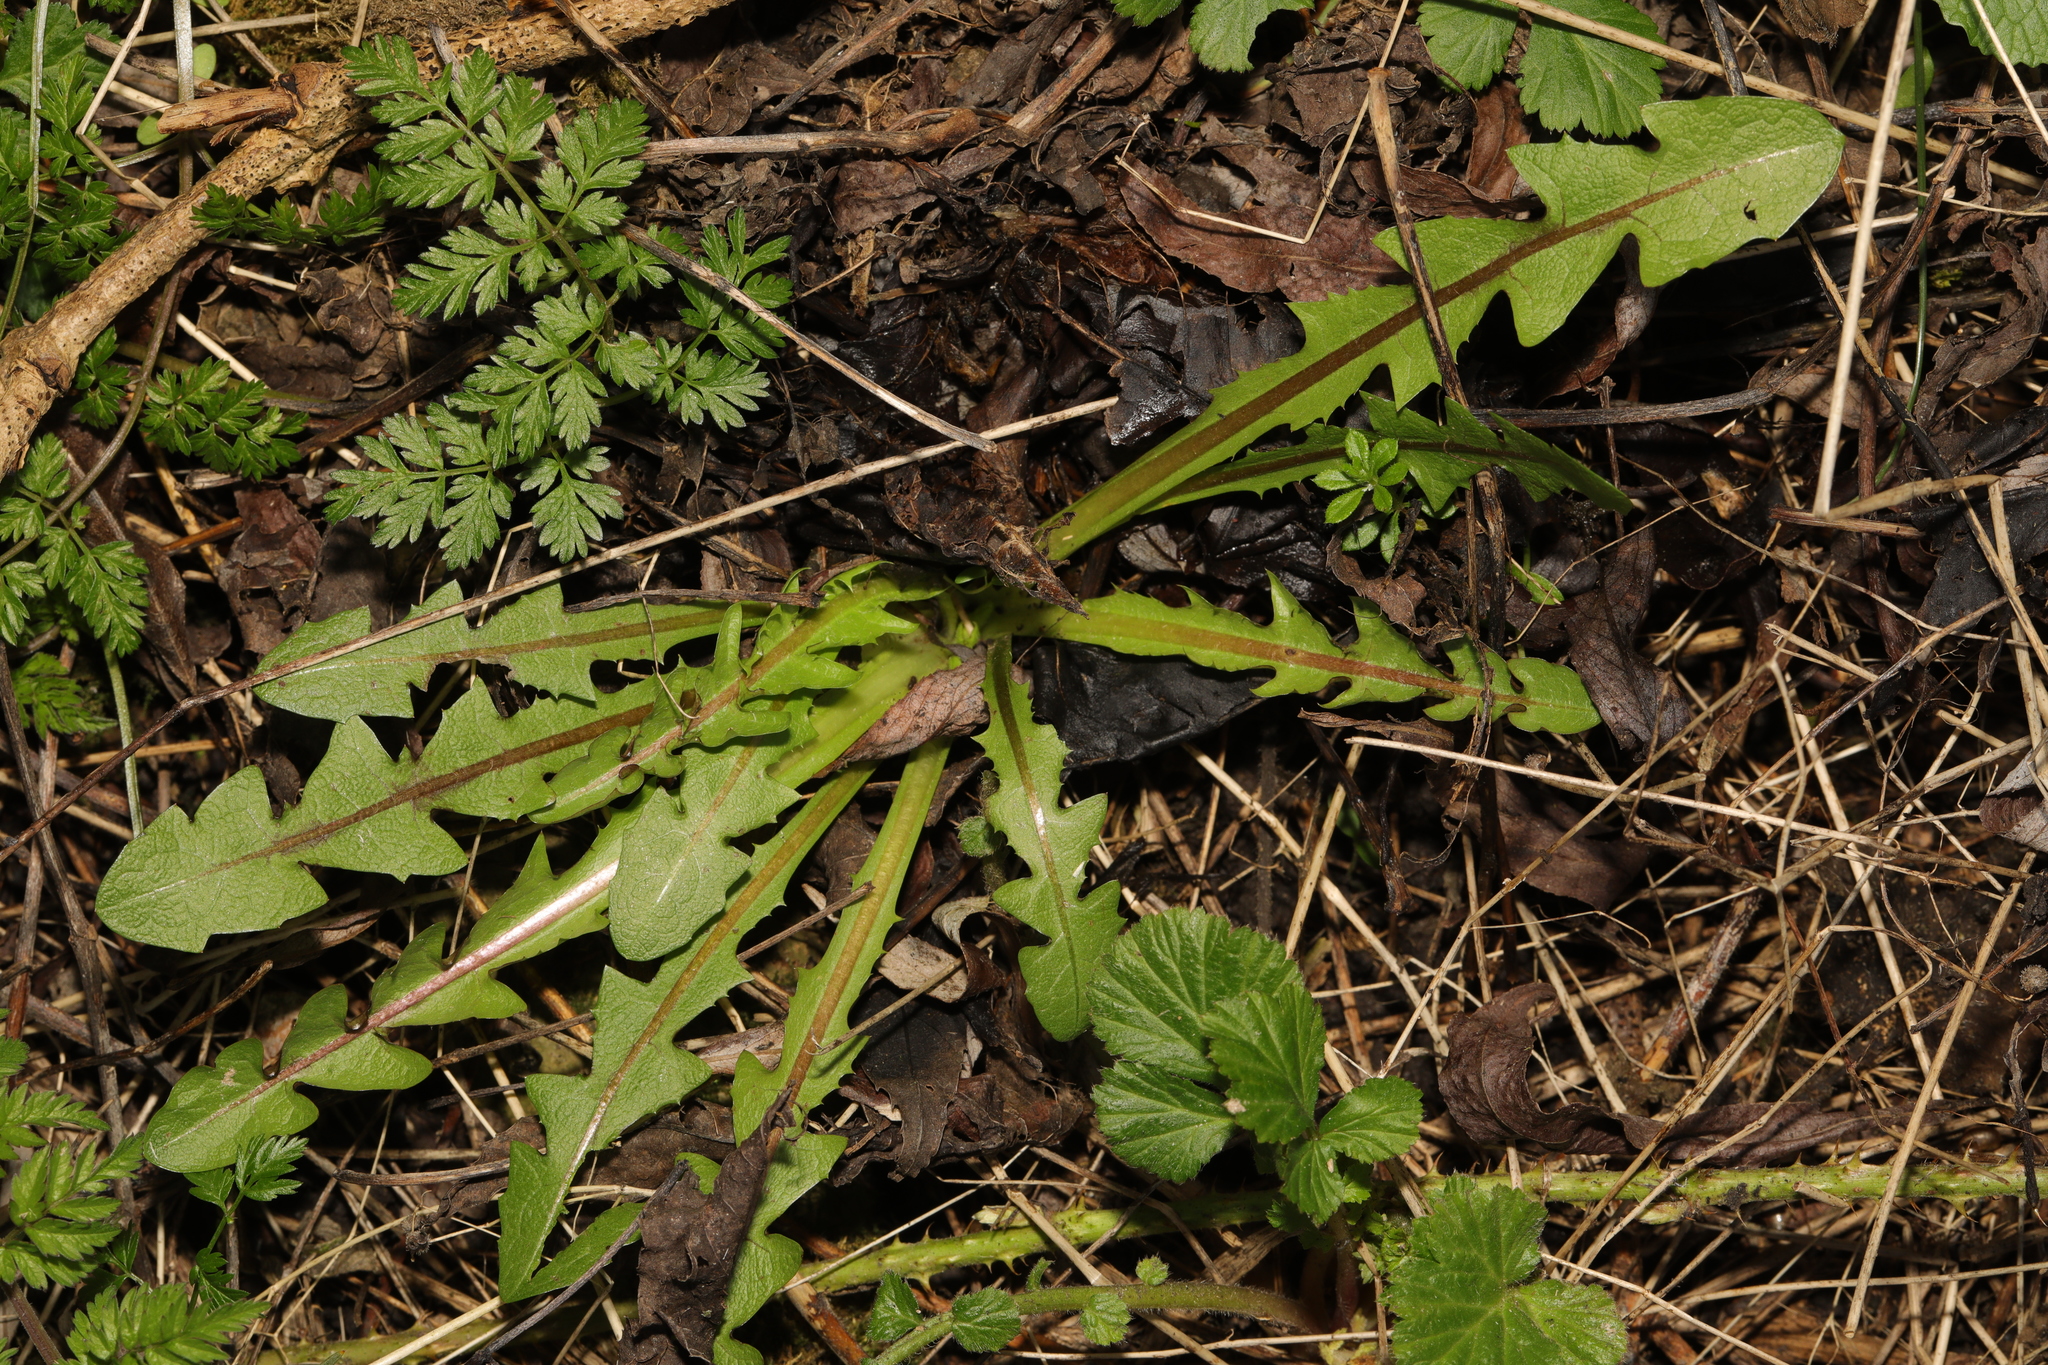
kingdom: Plantae
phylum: Tracheophyta
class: Magnoliopsida
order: Asterales
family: Asteraceae
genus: Taraxacum
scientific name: Taraxacum officinale
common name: Common dandelion
